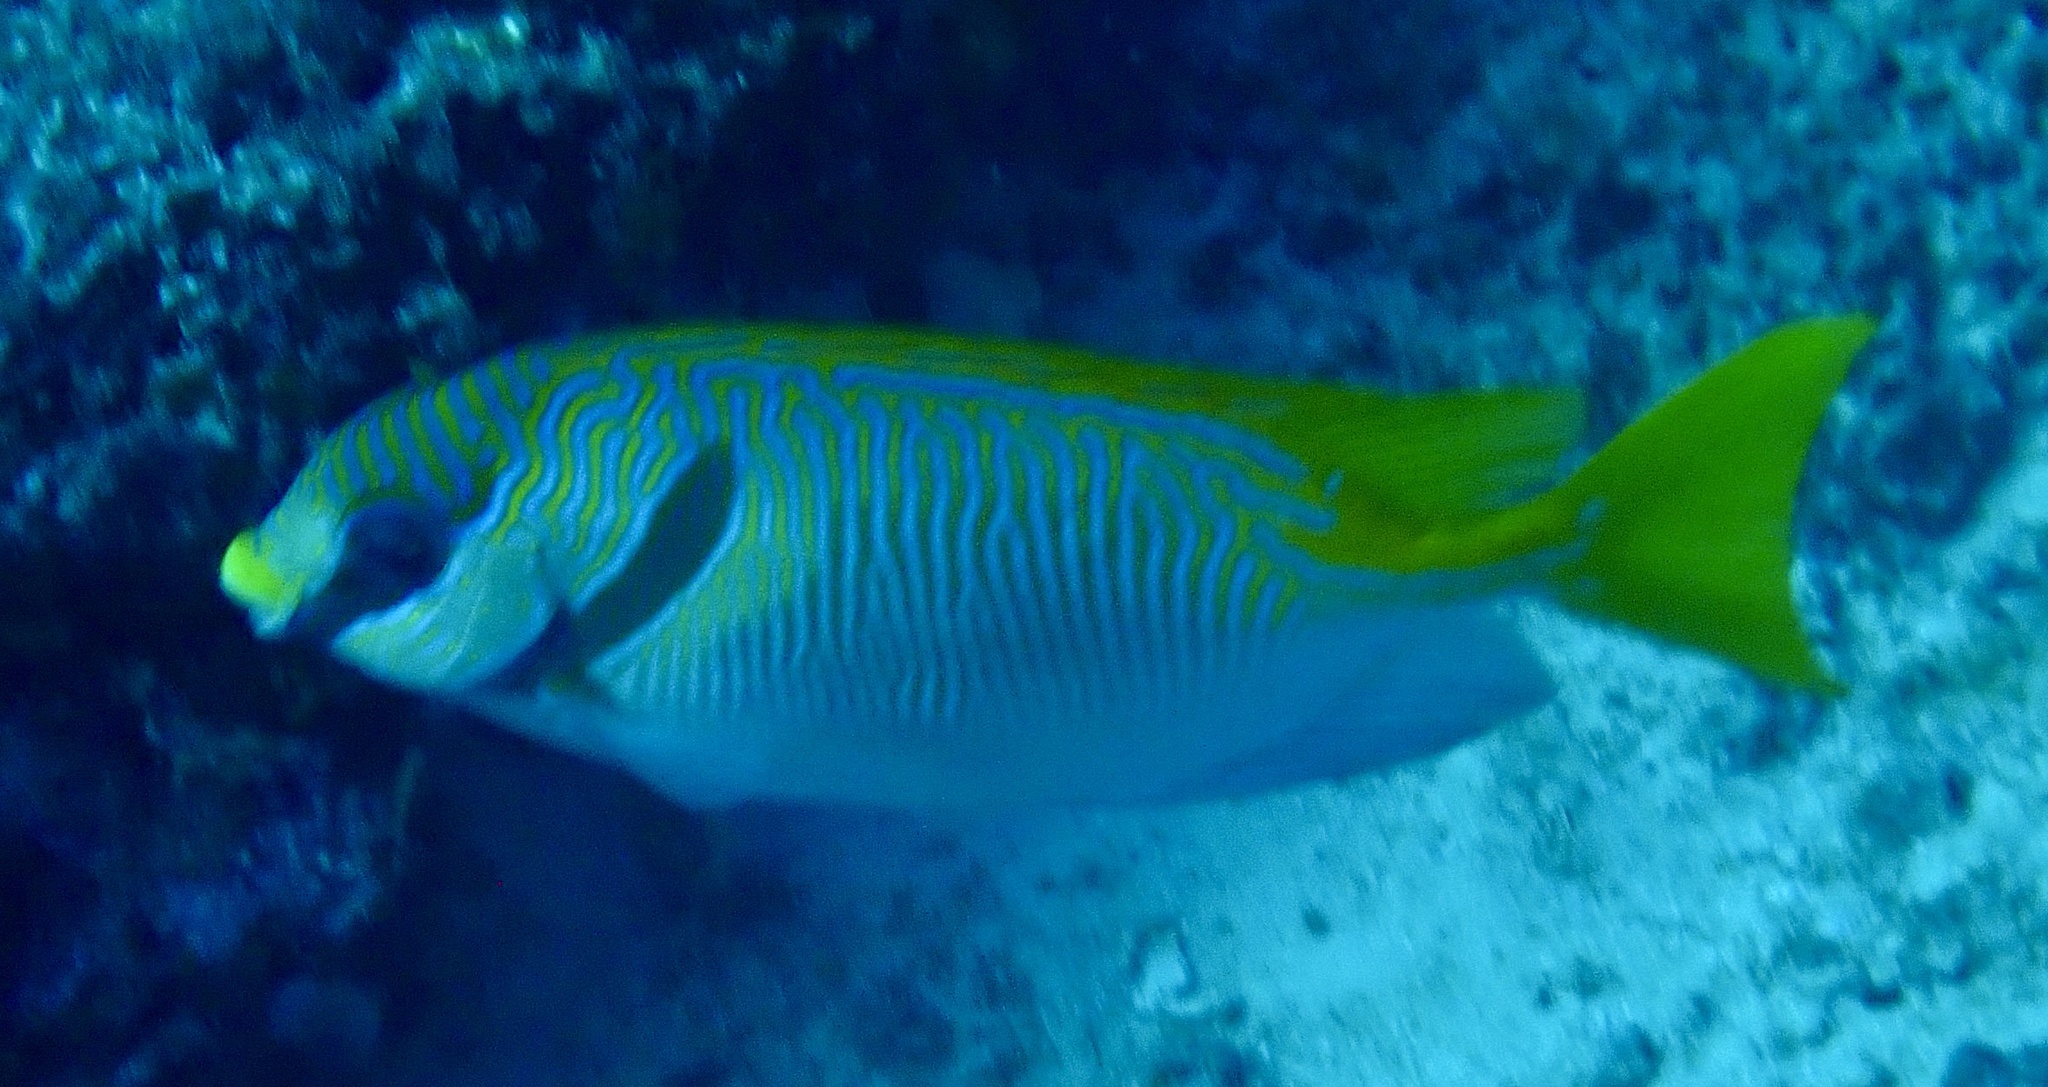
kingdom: Animalia
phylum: Chordata
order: Perciformes
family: Siganidae
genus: Siganus
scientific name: Siganus doliatus
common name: Barred spinefoot
